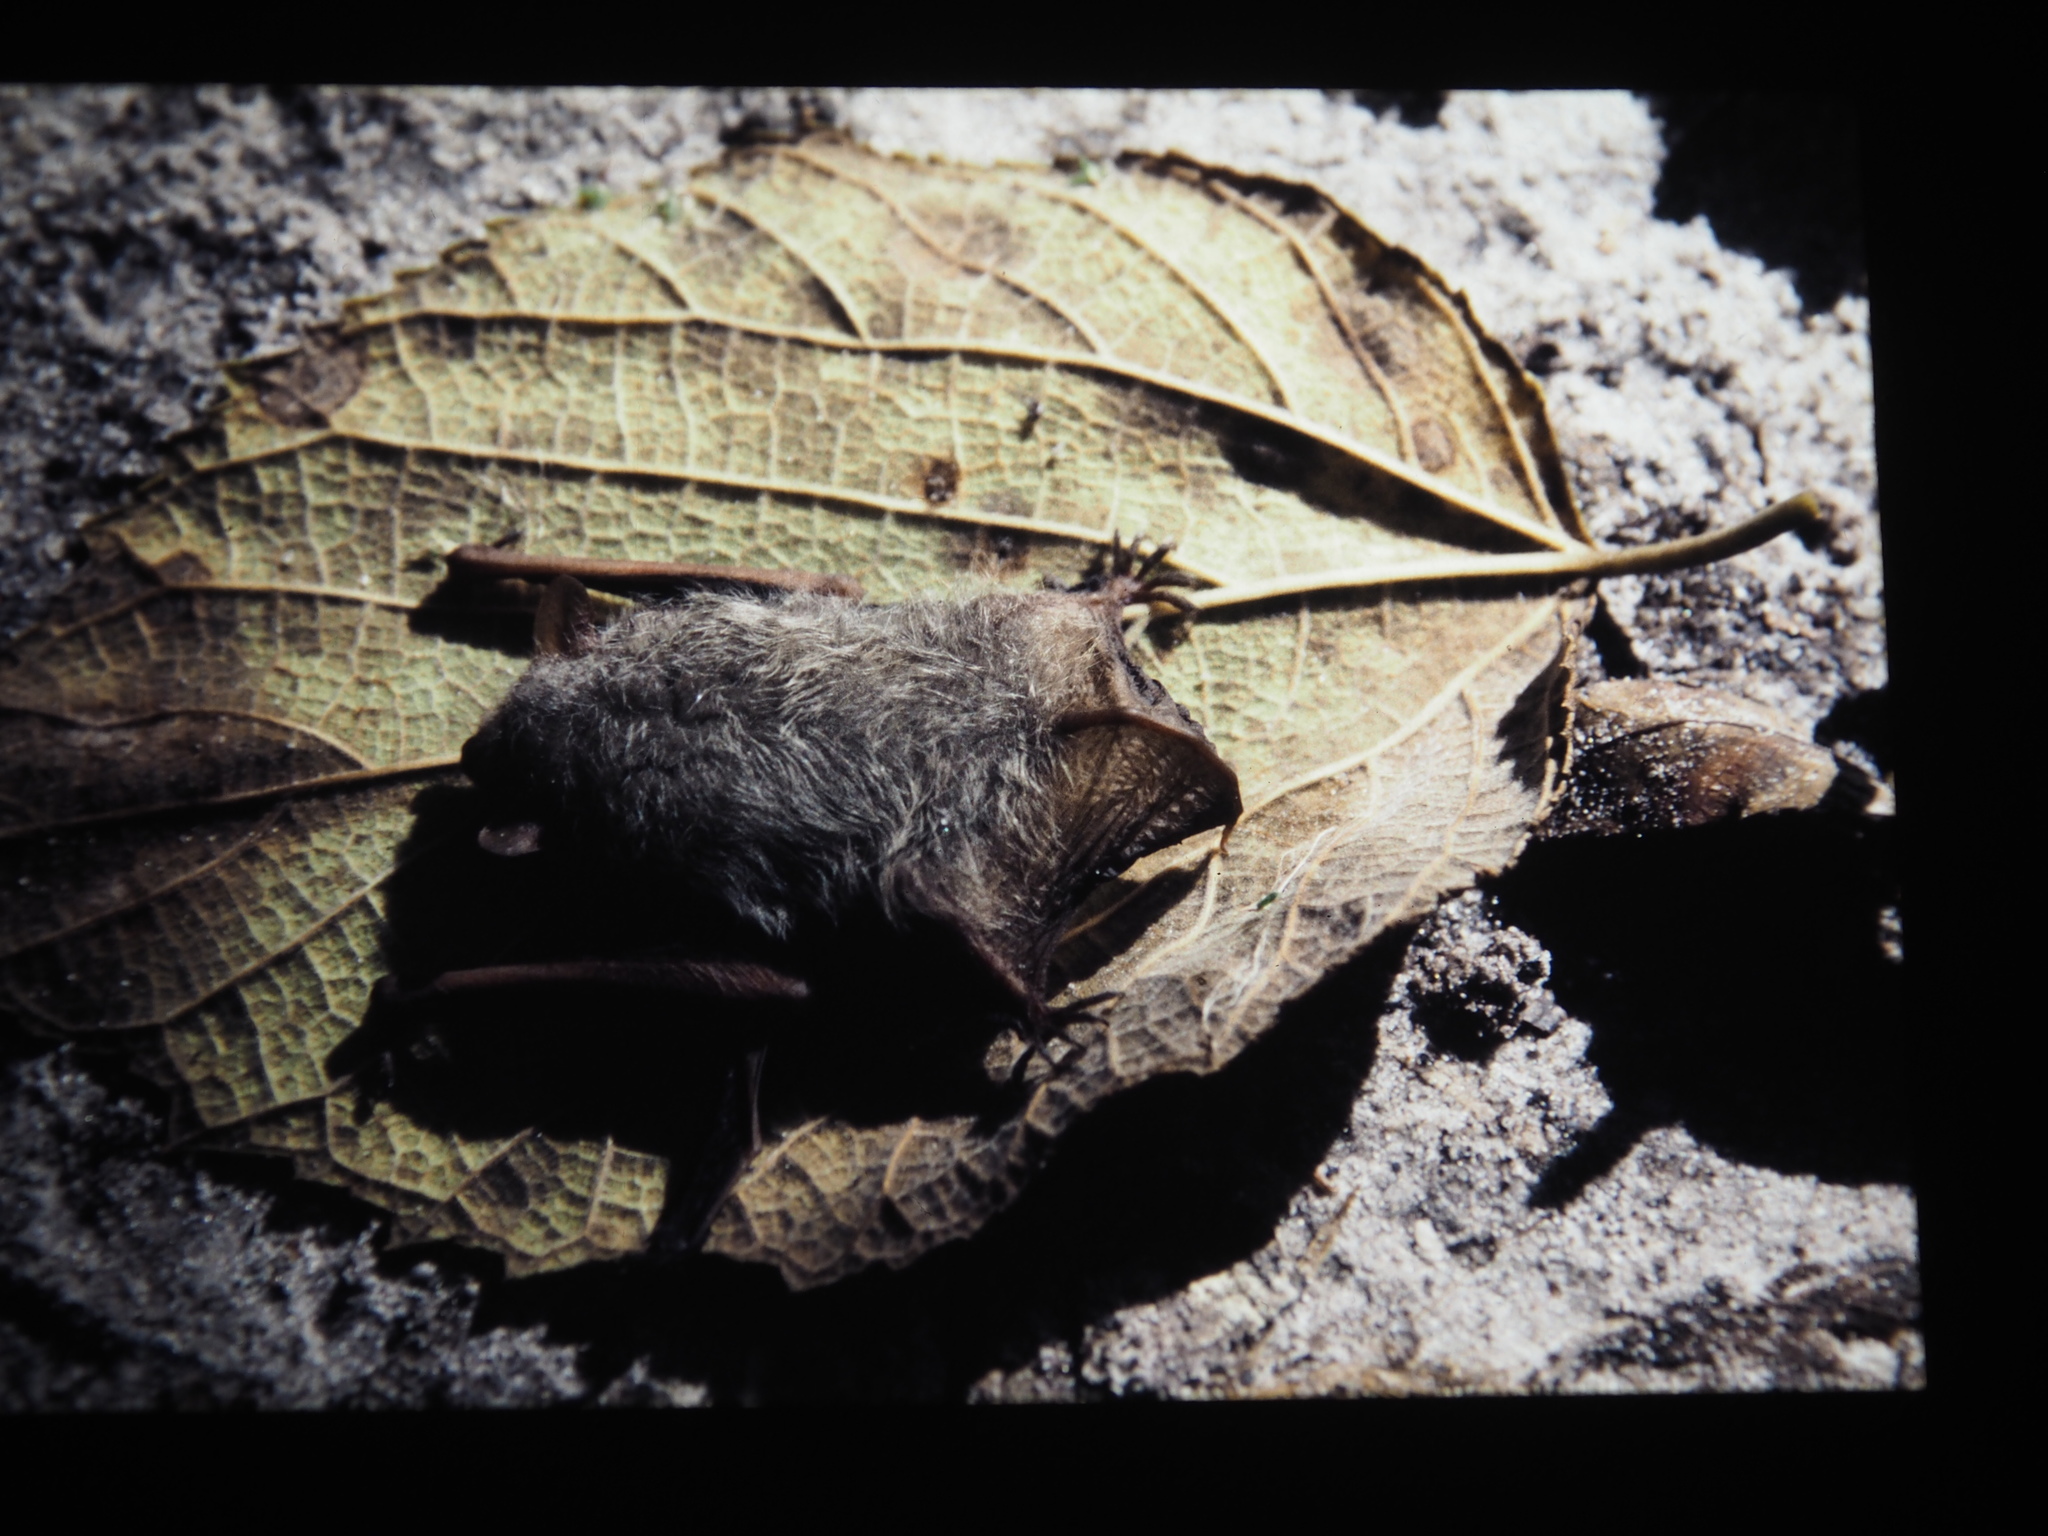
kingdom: Animalia
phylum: Chordata
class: Mammalia
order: Chiroptera
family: Vespertilionidae
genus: Perimyotis
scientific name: Perimyotis subflavus
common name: Eastern pipistrelle
